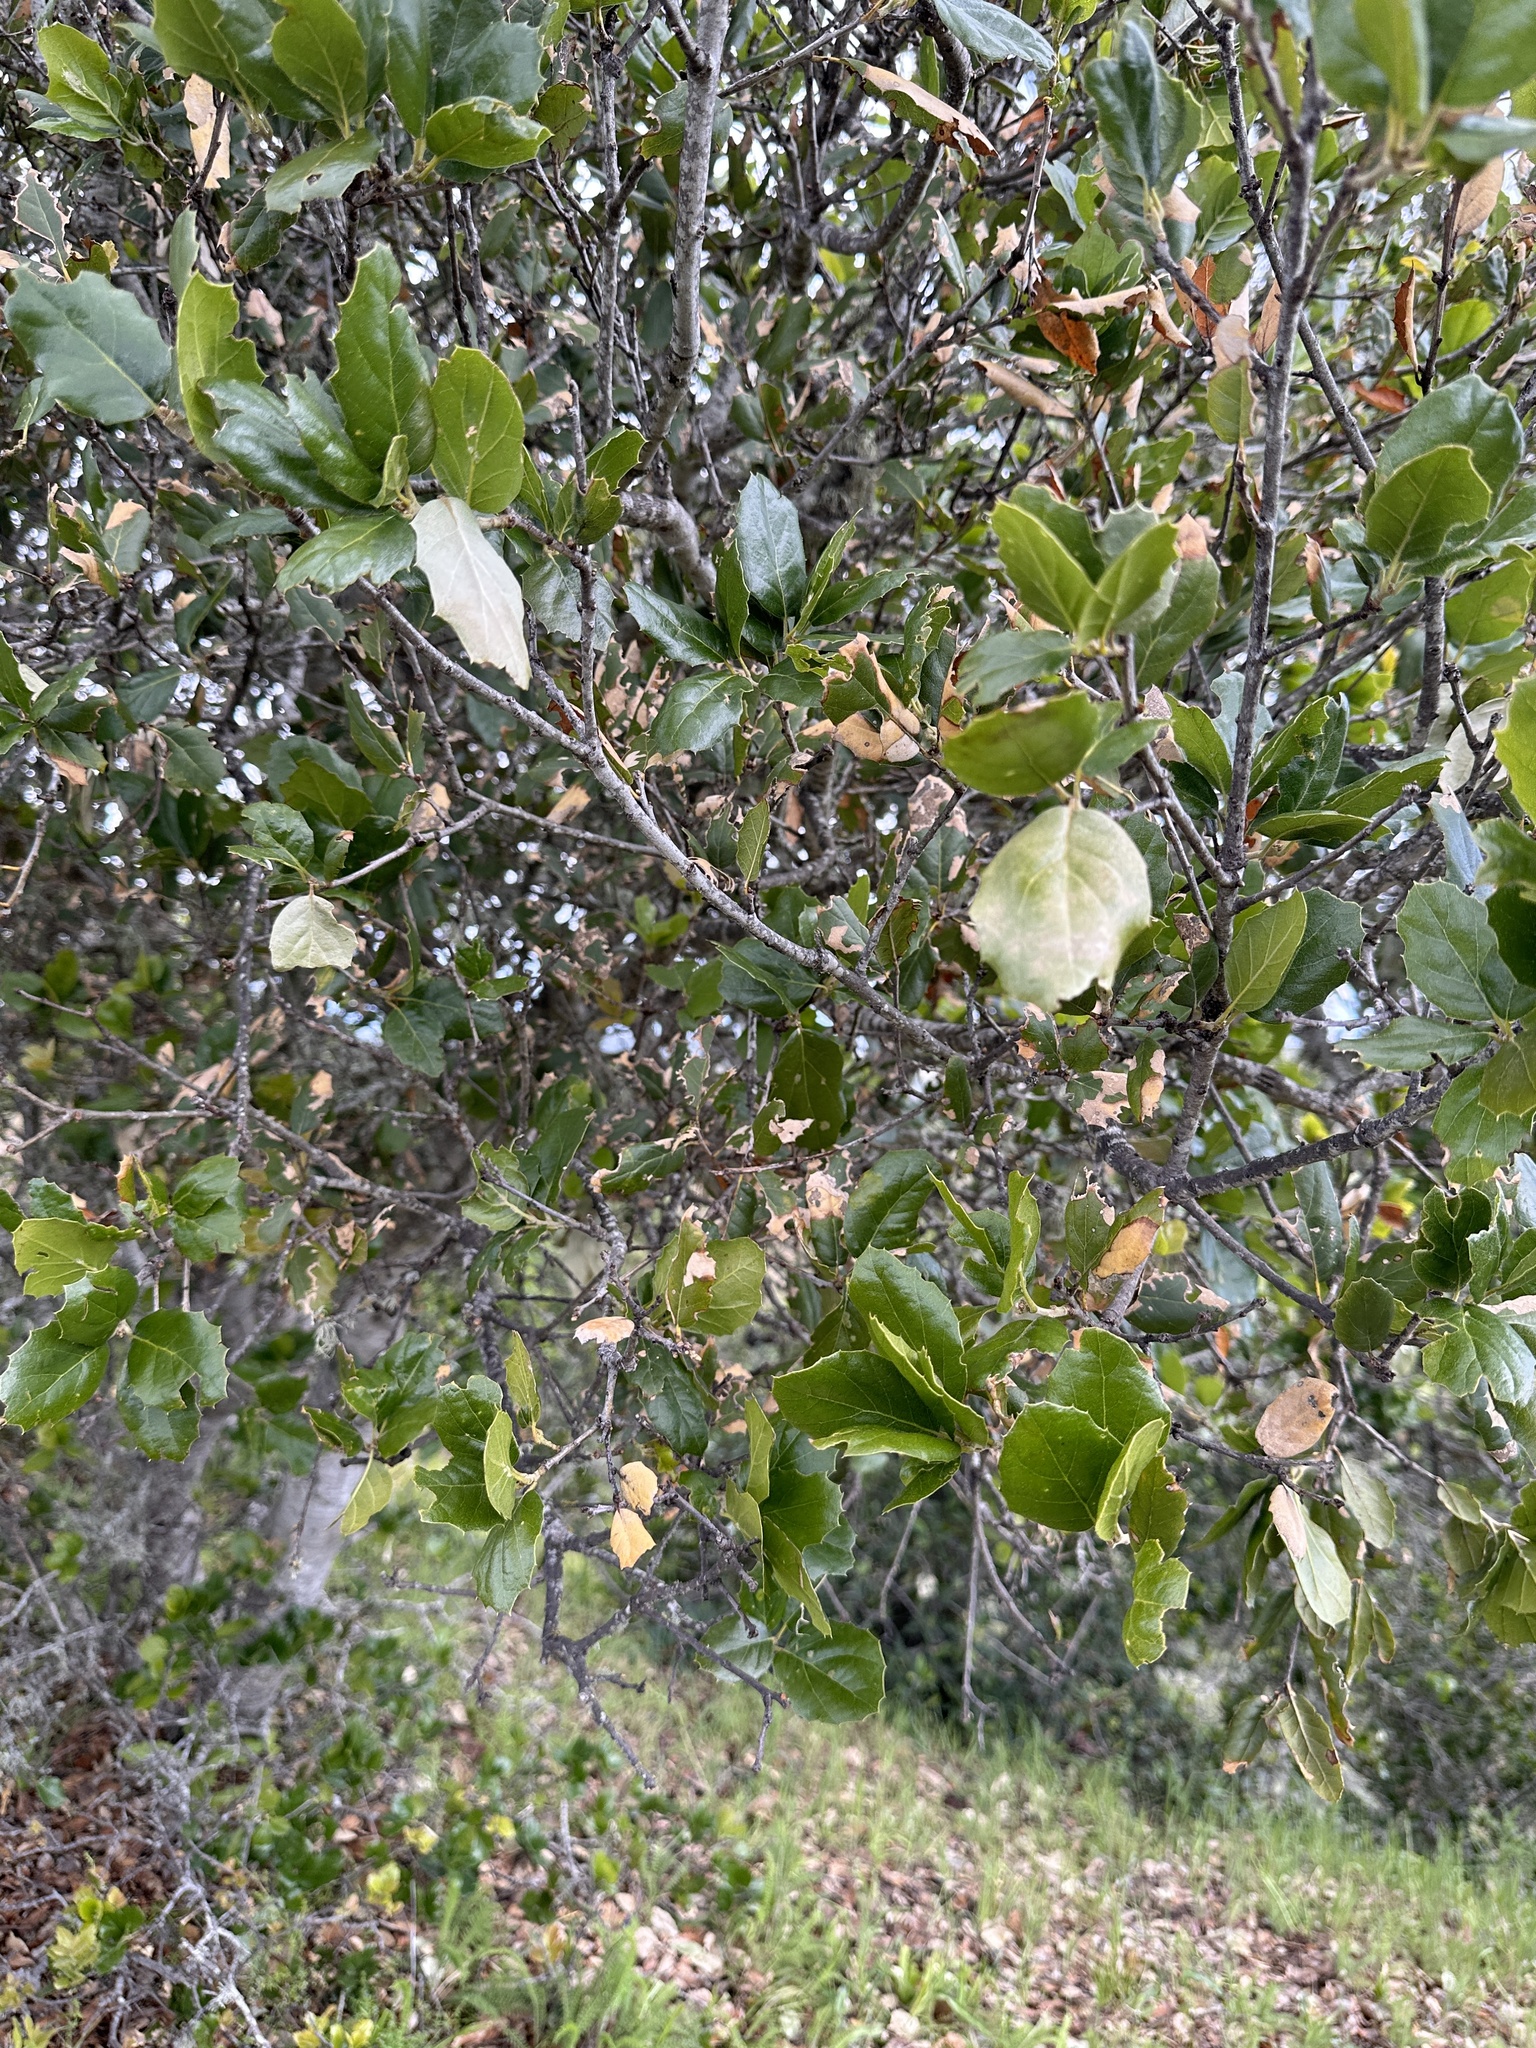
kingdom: Plantae
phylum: Tracheophyta
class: Magnoliopsida
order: Fagales
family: Fagaceae
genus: Quercus
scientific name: Quercus agrifolia
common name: California live oak
